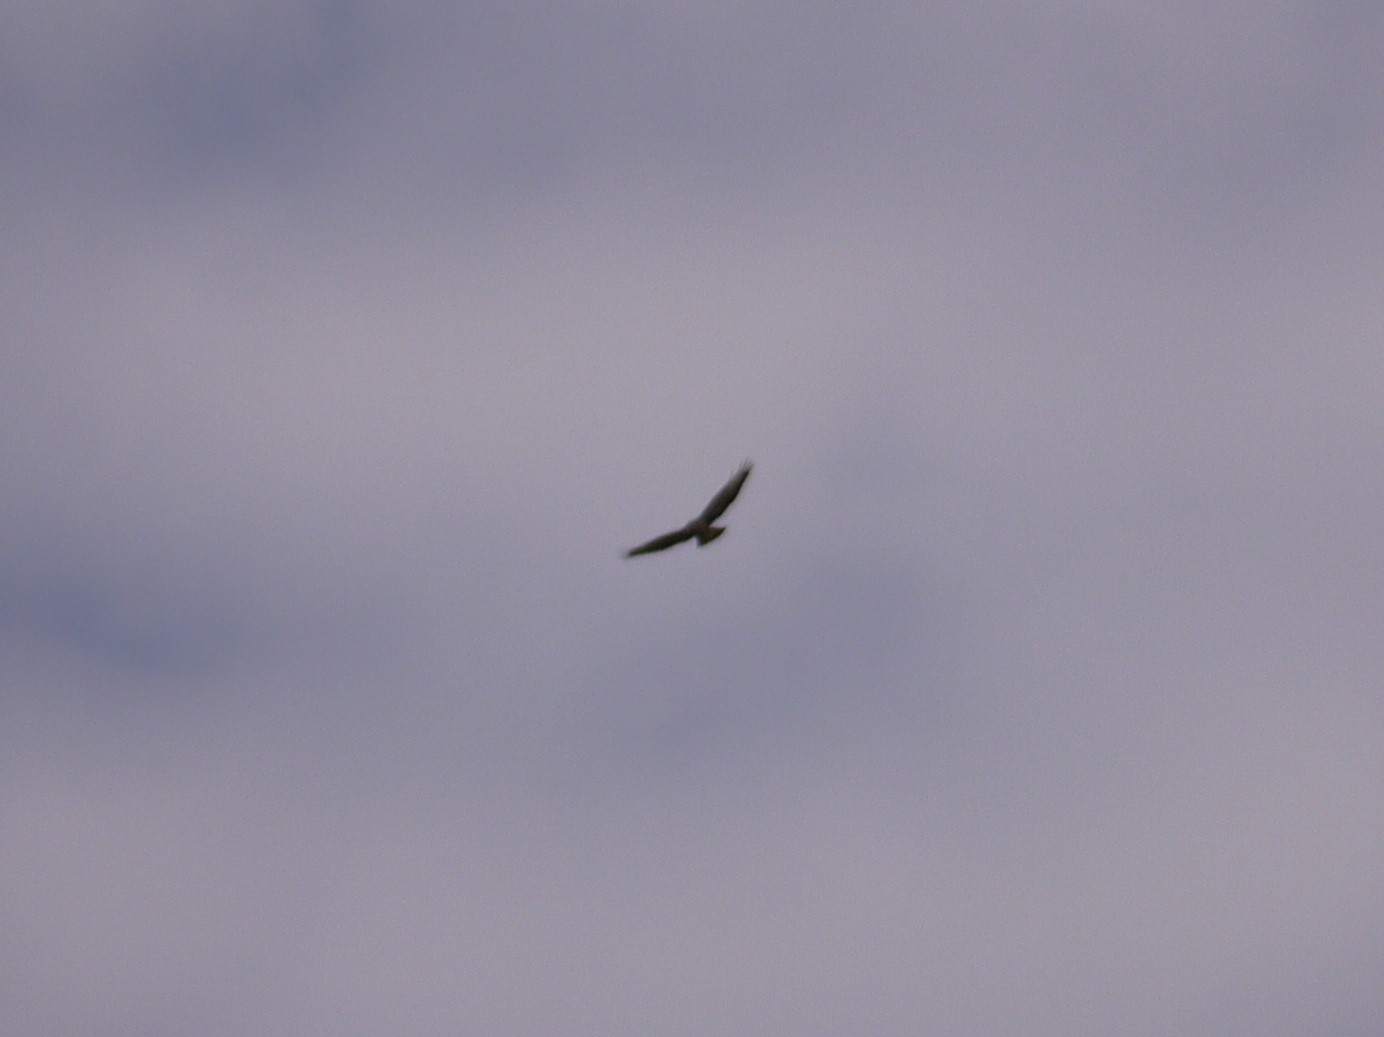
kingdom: Animalia
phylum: Chordata
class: Aves
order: Accipitriformes
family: Accipitridae
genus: Buteo
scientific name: Buteo buteo
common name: Common buzzard
